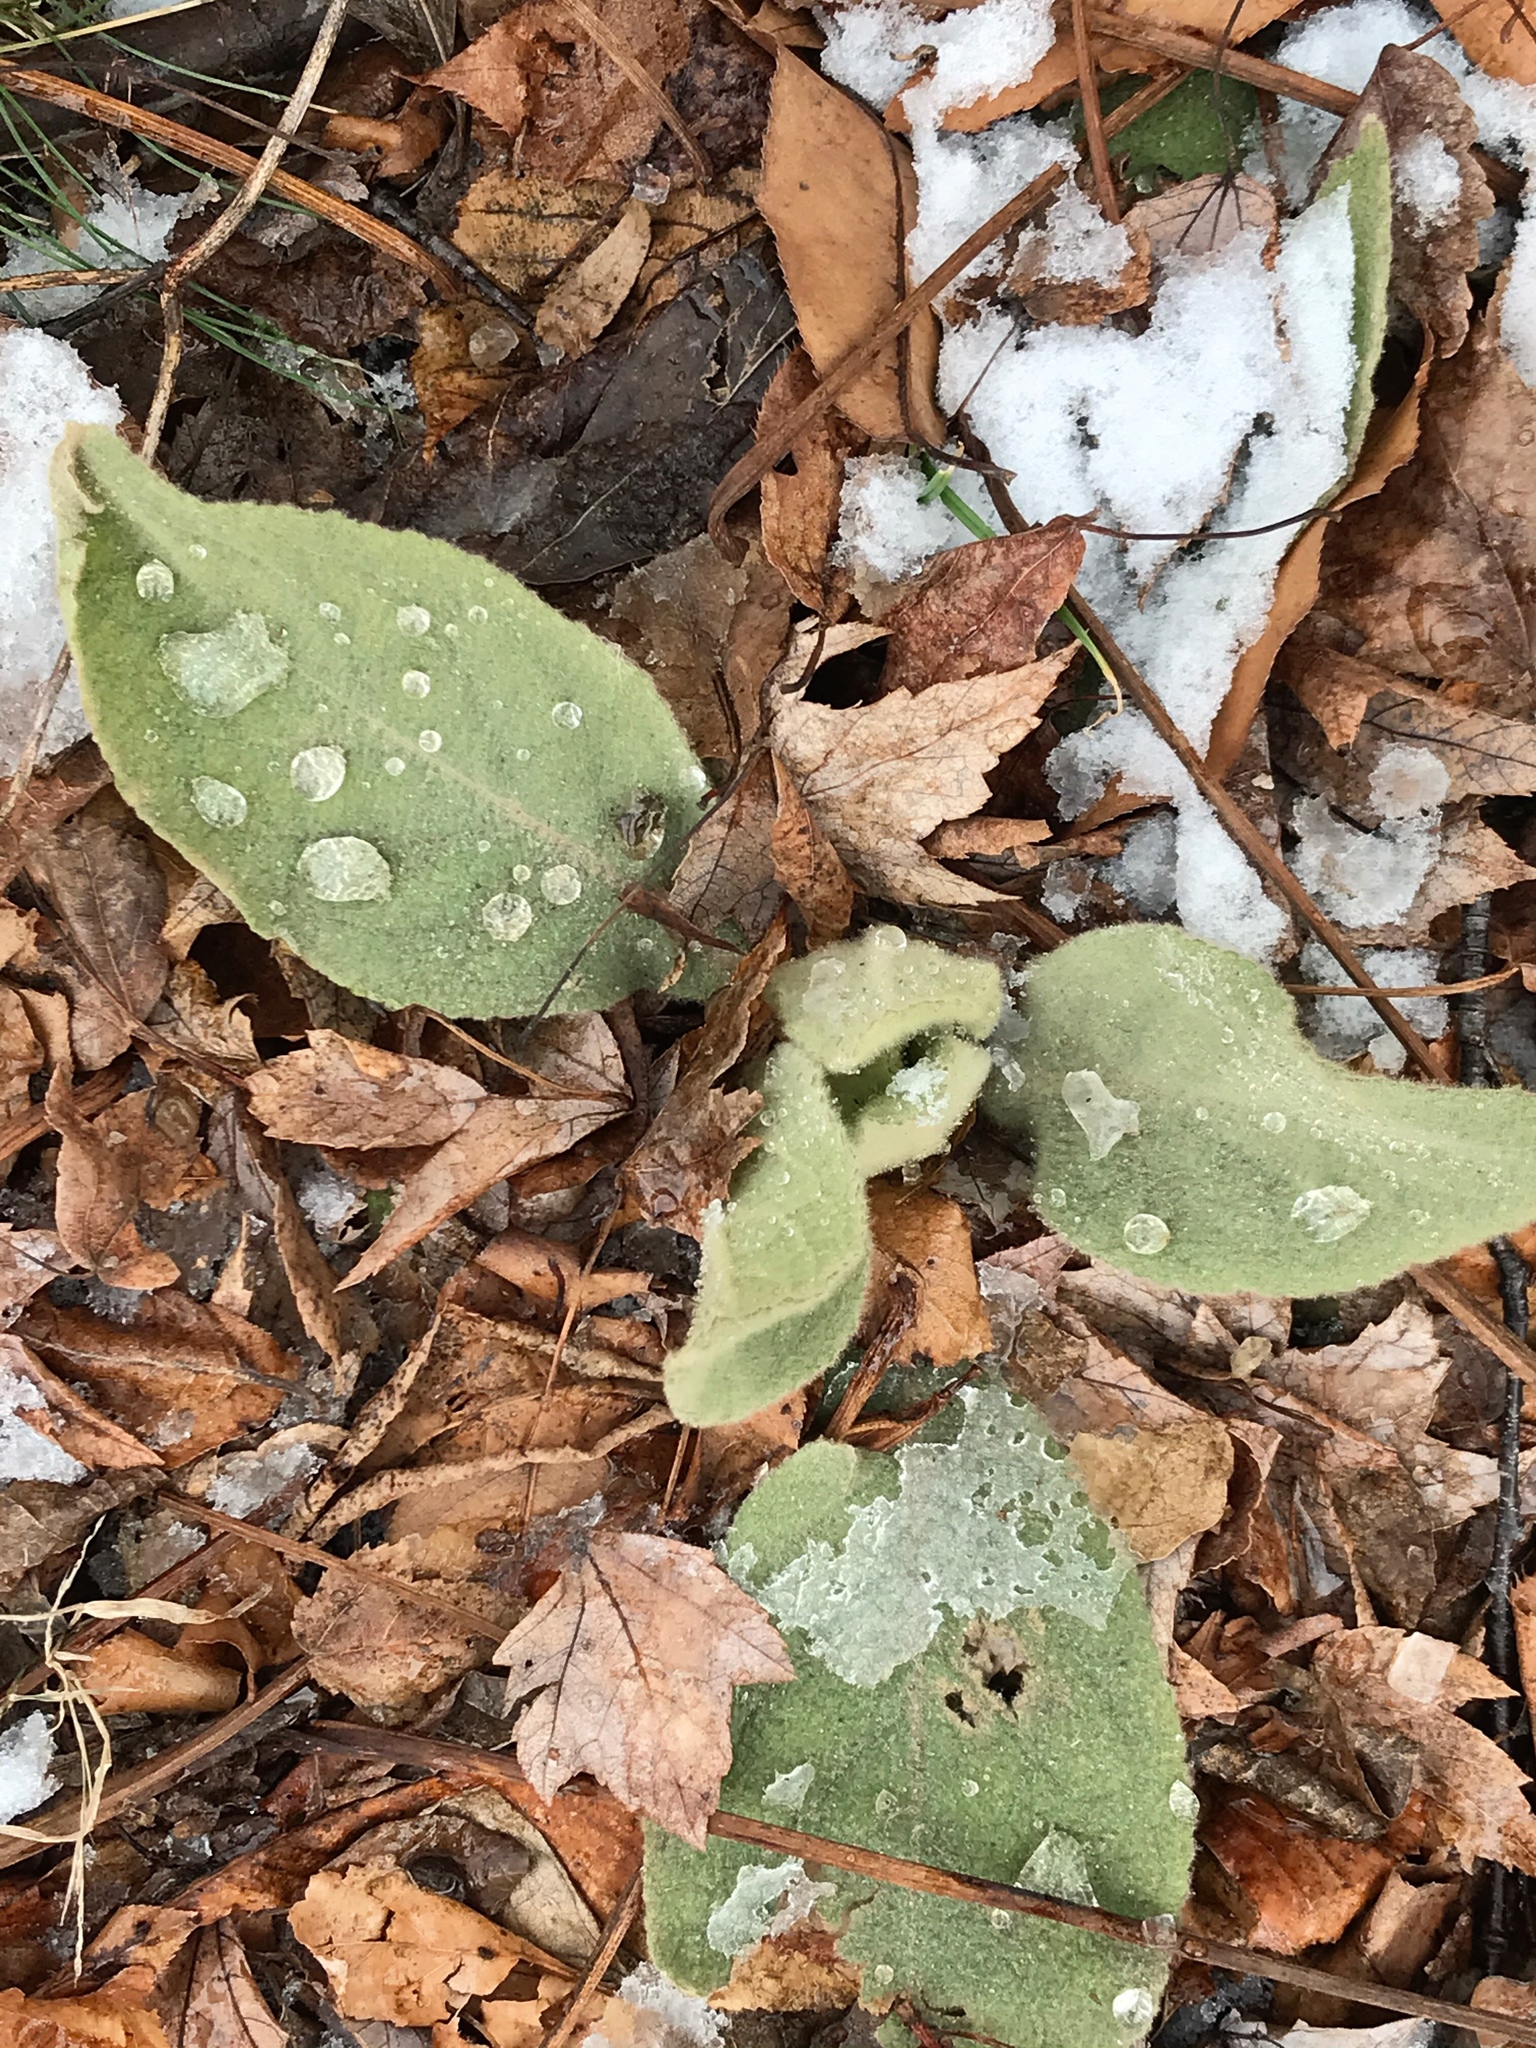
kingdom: Plantae
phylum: Tracheophyta
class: Magnoliopsida
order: Lamiales
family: Scrophulariaceae
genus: Verbascum
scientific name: Verbascum thapsus
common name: Common mullein
